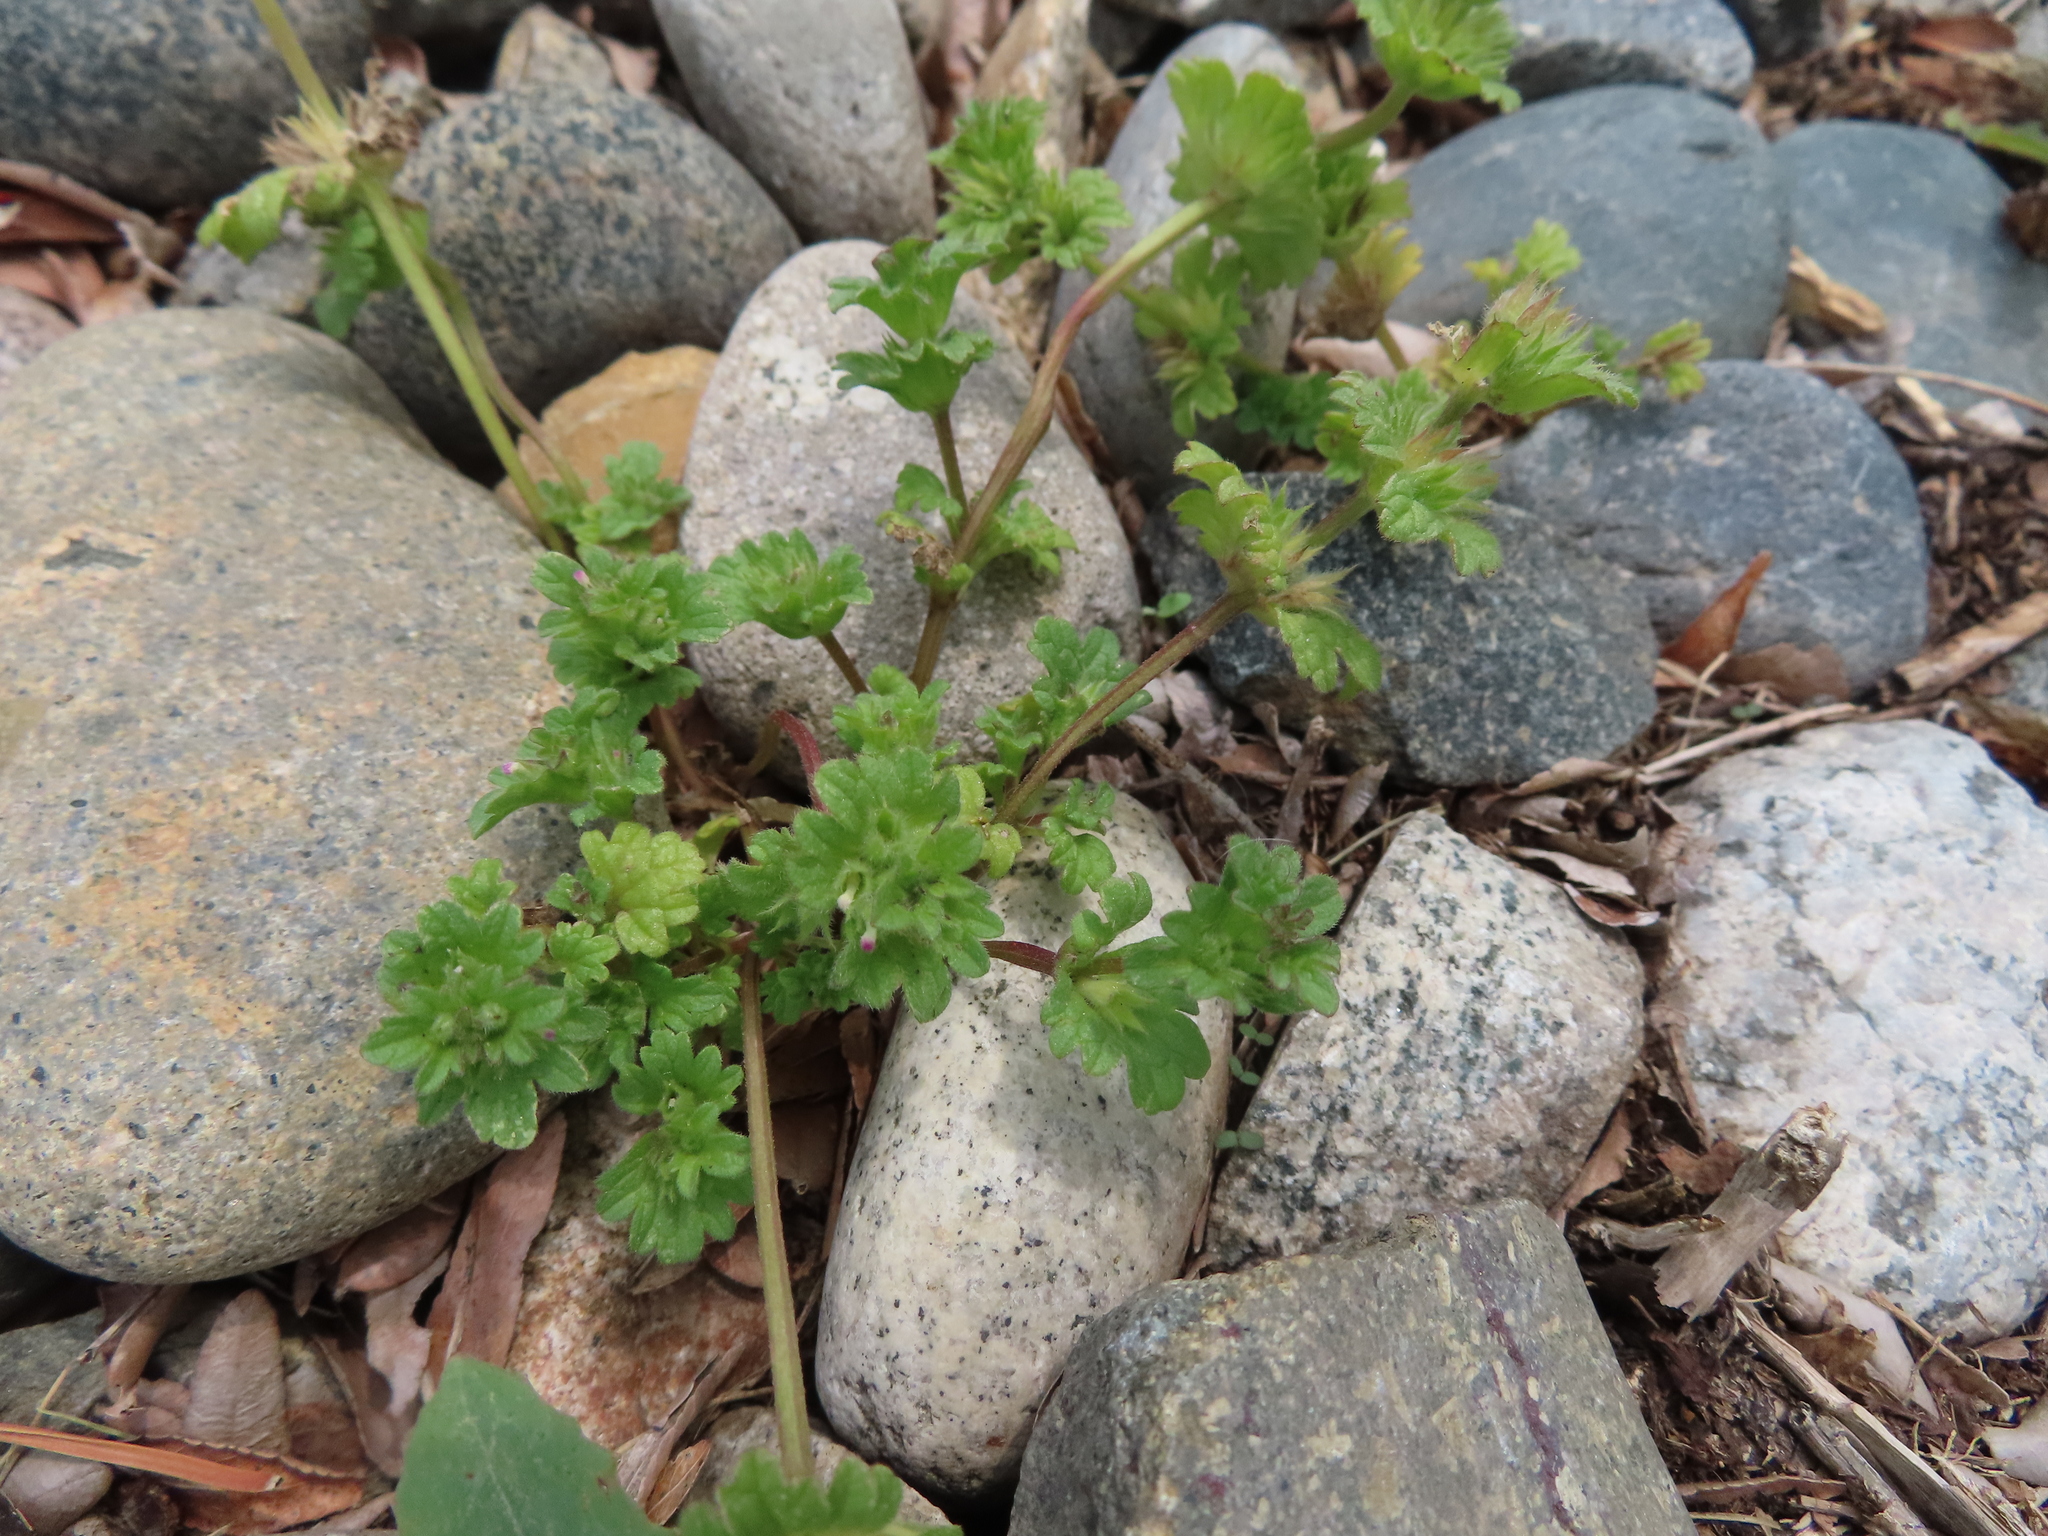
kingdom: Plantae
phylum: Tracheophyta
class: Magnoliopsida
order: Lamiales
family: Lamiaceae
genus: Lamium
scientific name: Lamium amplexicaule
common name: Henbit dead-nettle
